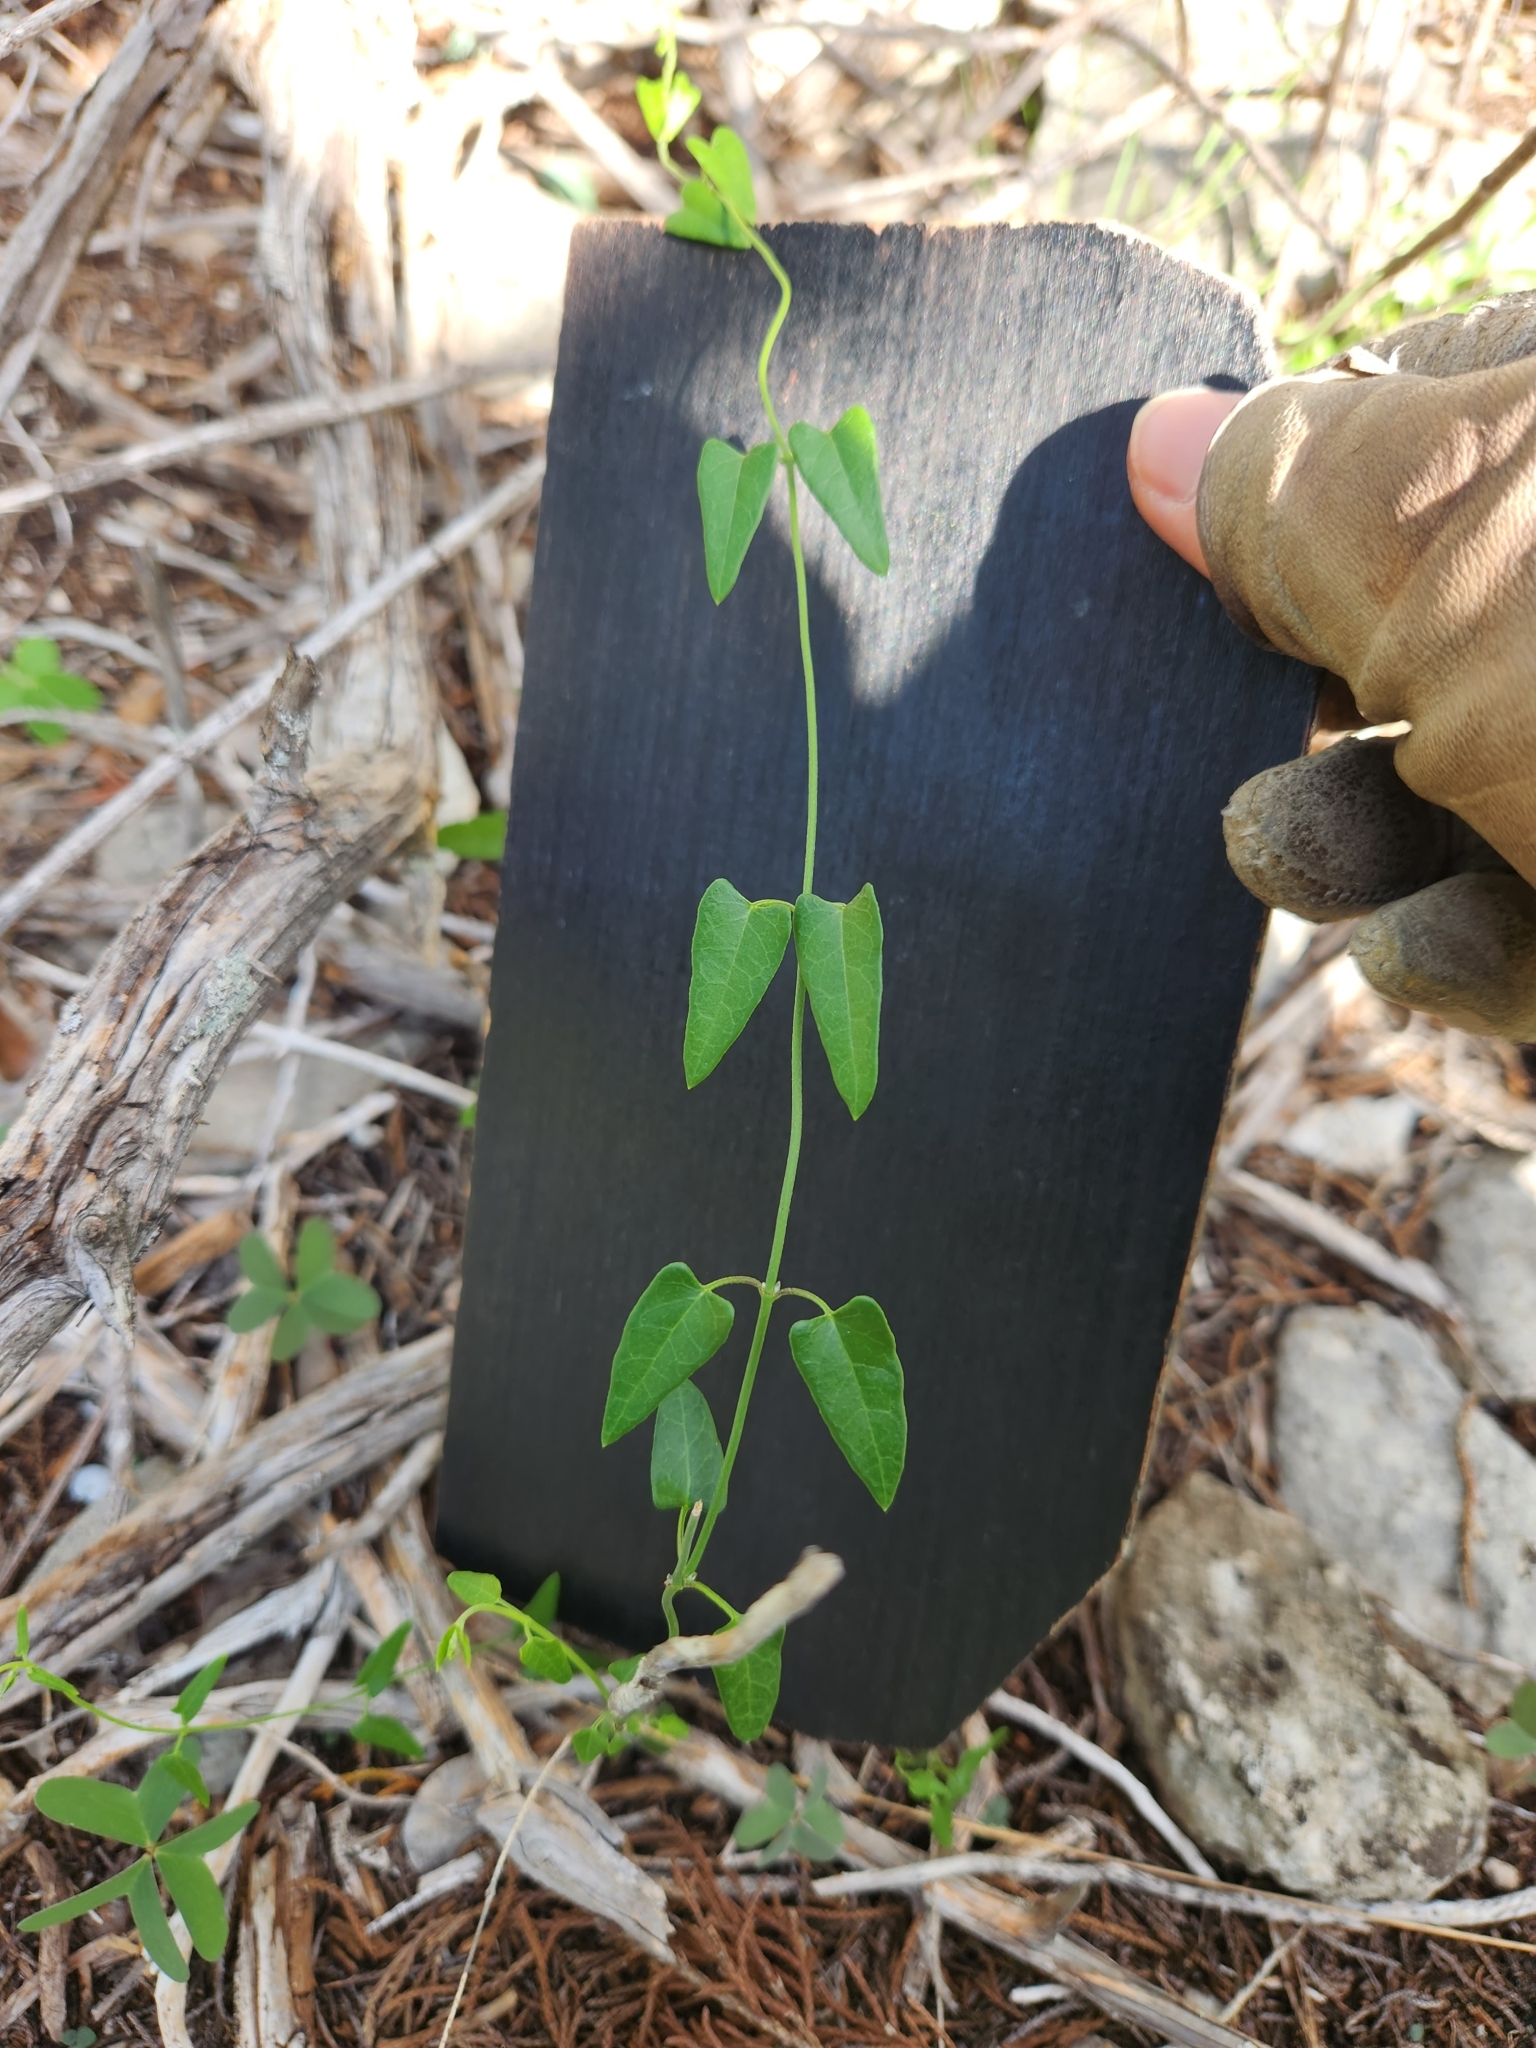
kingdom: Plantae
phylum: Tracheophyta
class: Magnoliopsida
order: Gentianales
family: Apocynaceae
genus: Matelea
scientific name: Matelea sagittifolia
